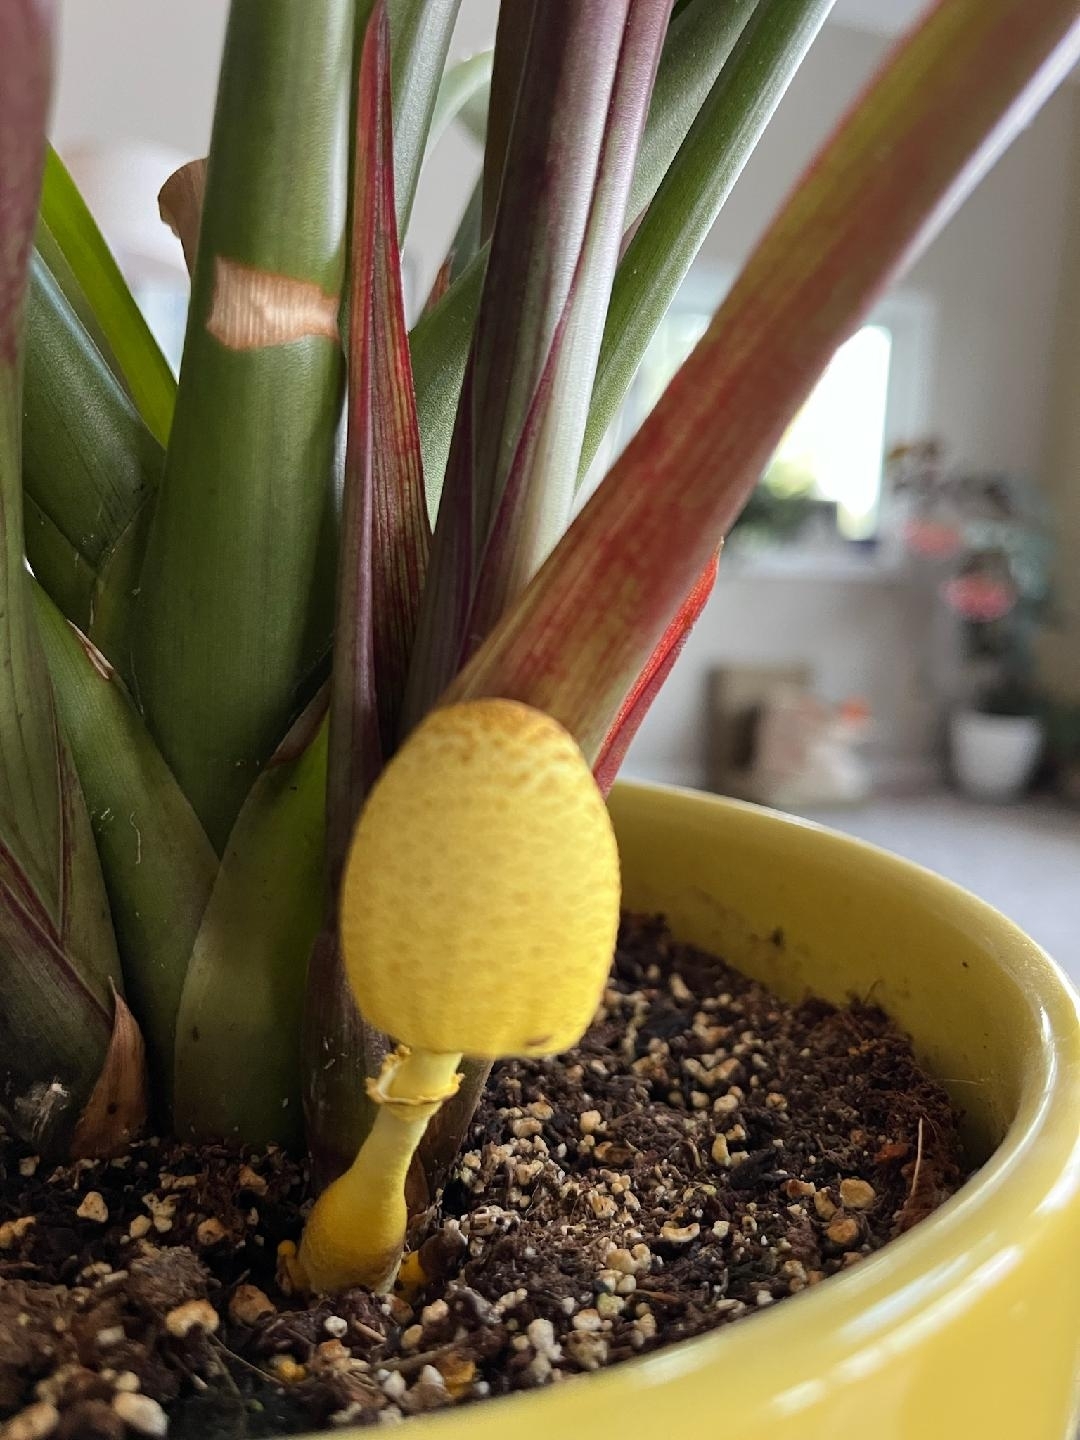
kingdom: Fungi
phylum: Basidiomycota
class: Agaricomycetes
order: Agaricales
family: Agaricaceae
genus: Leucocoprinus
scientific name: Leucocoprinus birnbaumii
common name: Plantpot dapperling
